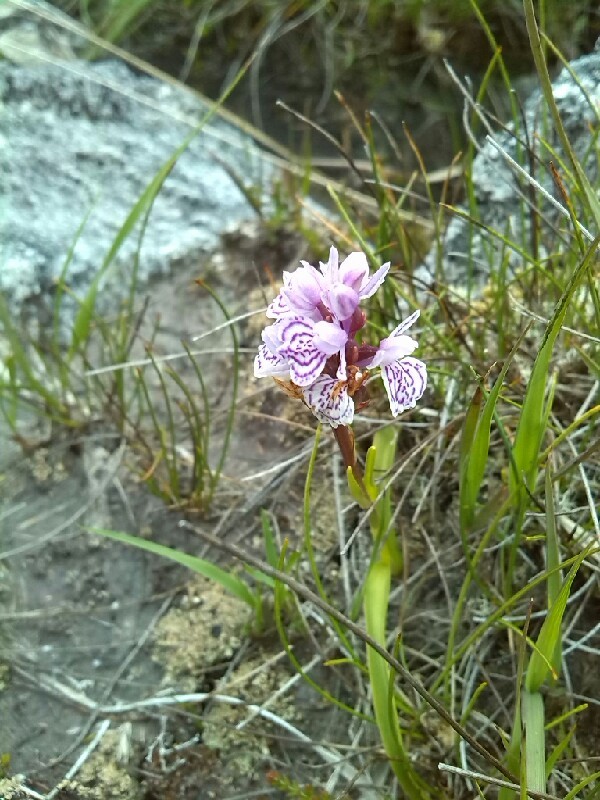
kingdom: Plantae
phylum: Tracheophyta
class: Liliopsida
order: Asparagales
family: Orchidaceae
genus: Dactylorhiza
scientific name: Dactylorhiza maculata
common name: Heath spotted-orchid
